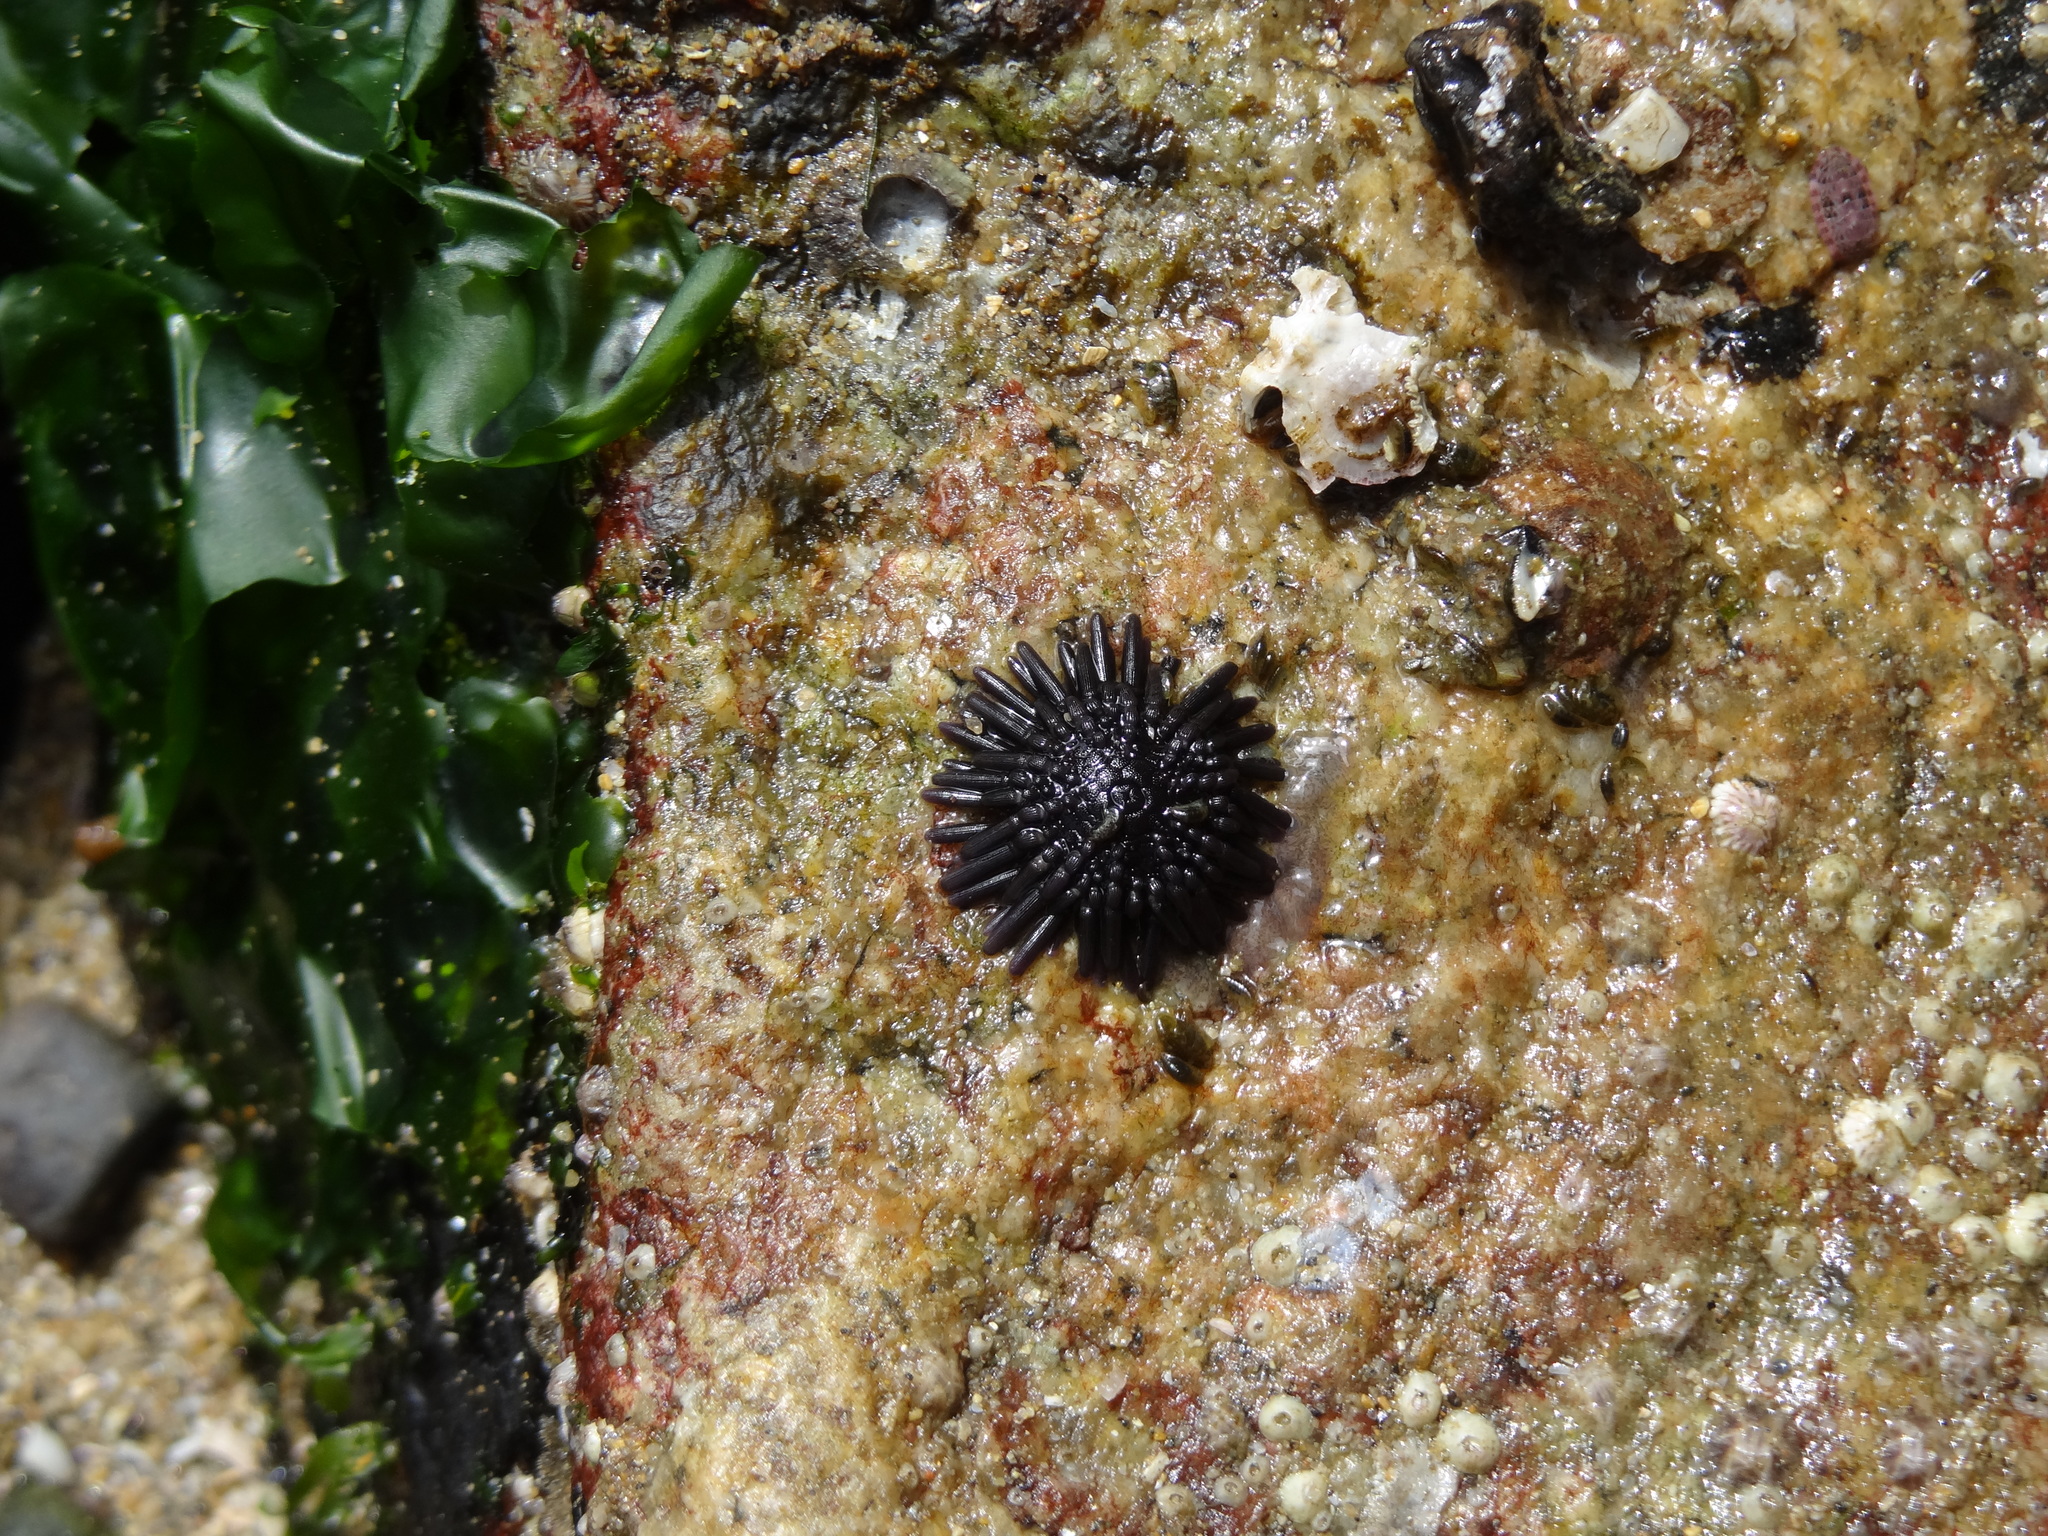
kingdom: Animalia
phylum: Echinodermata
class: Echinoidea
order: Arbacioida
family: Arbaciidae
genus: Tetrapygus
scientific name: Tetrapygus niger
